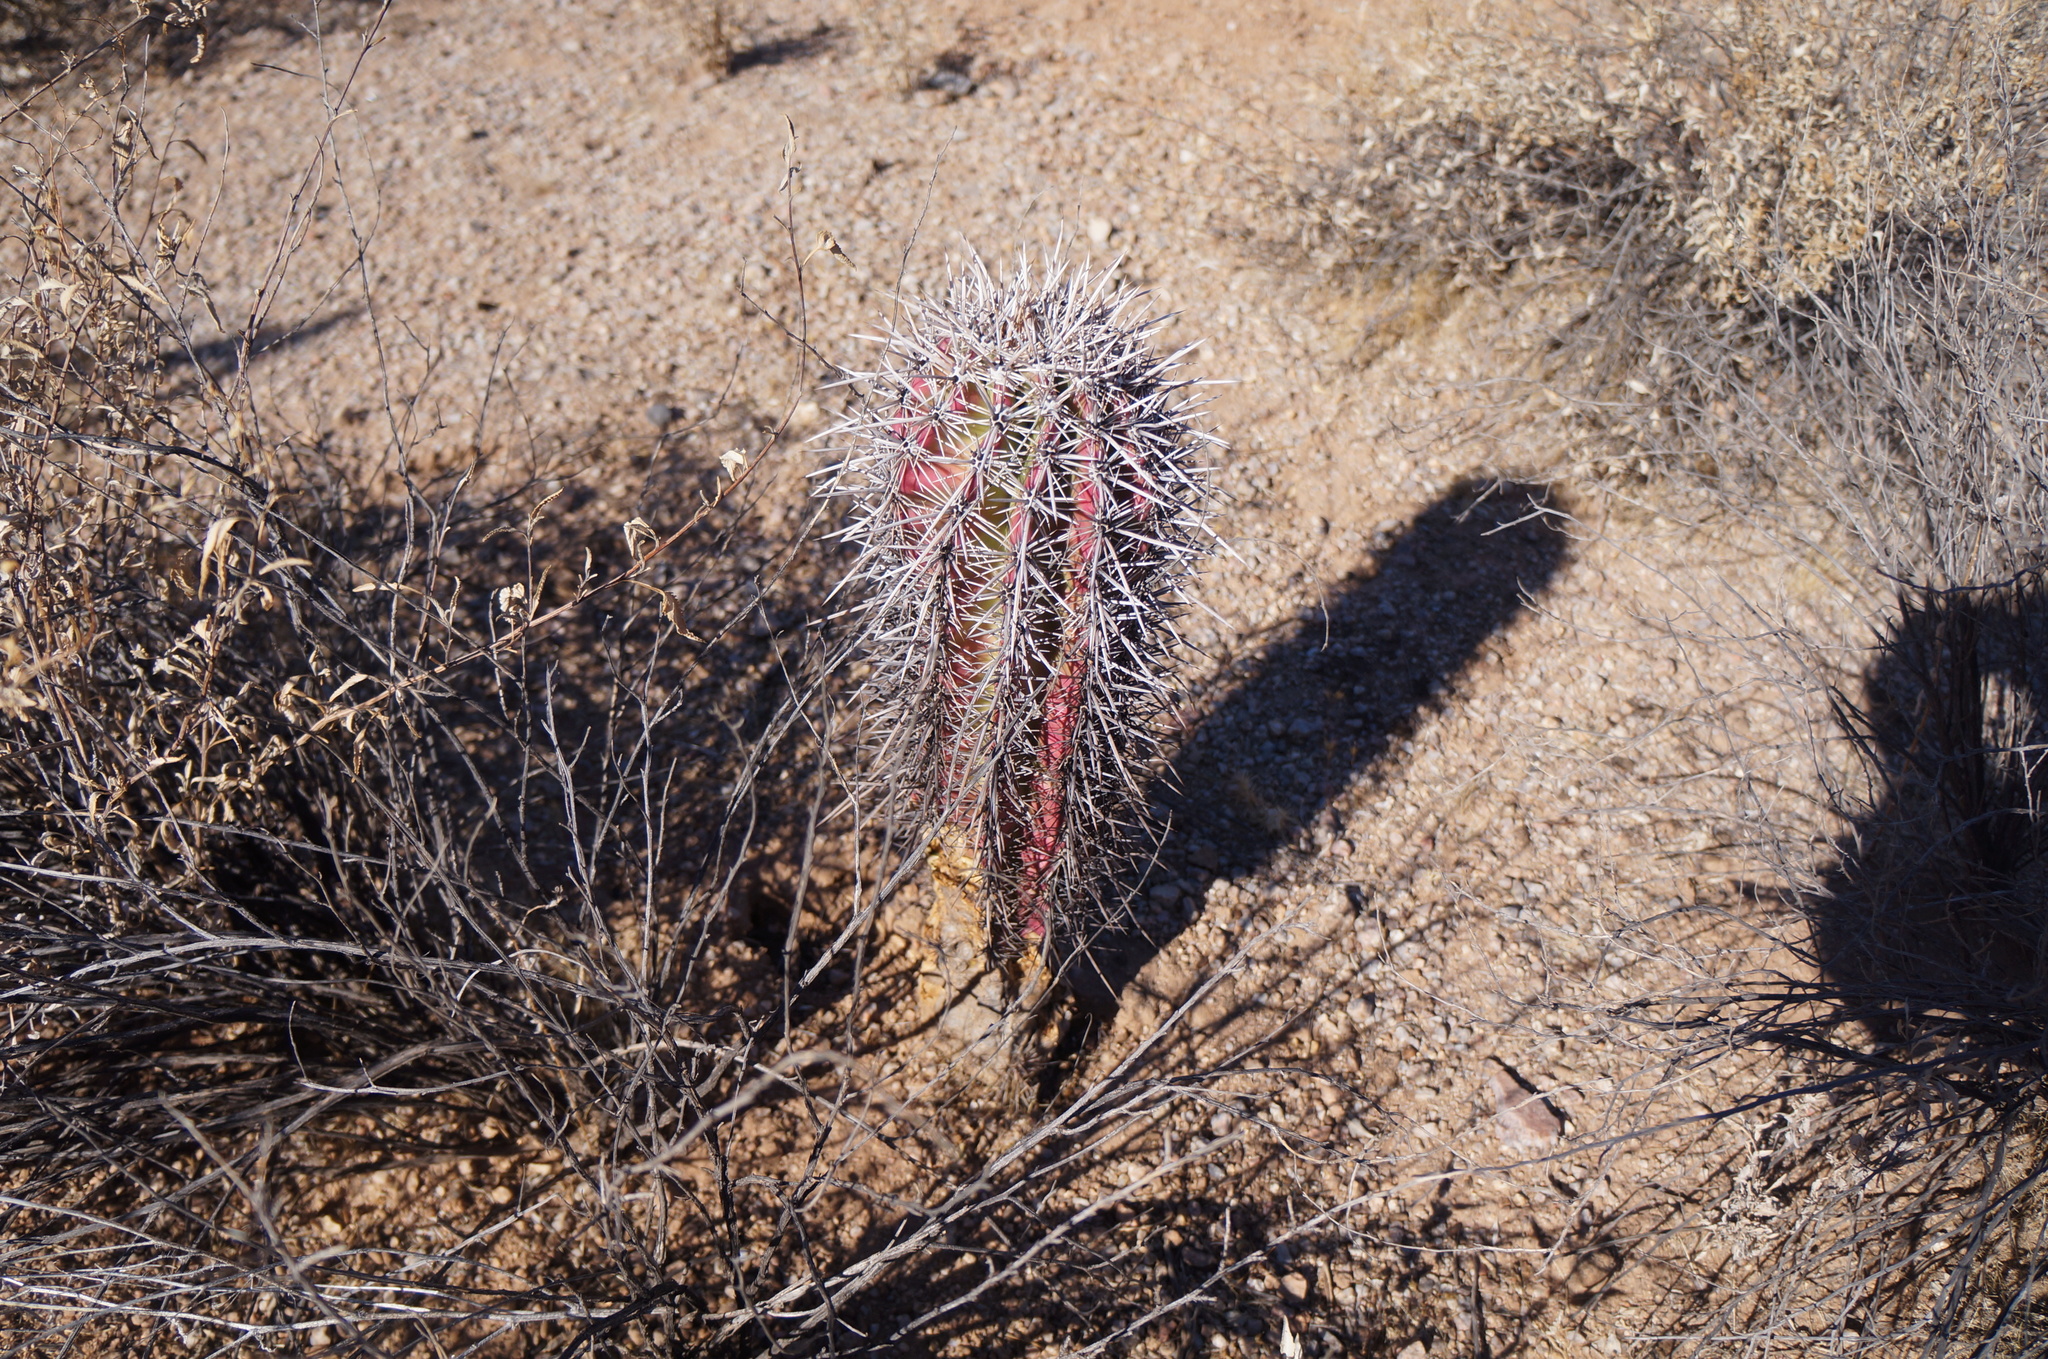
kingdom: Plantae
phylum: Tracheophyta
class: Magnoliopsida
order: Caryophyllales
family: Cactaceae
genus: Carnegiea
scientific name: Carnegiea gigantea
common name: Saguaro
